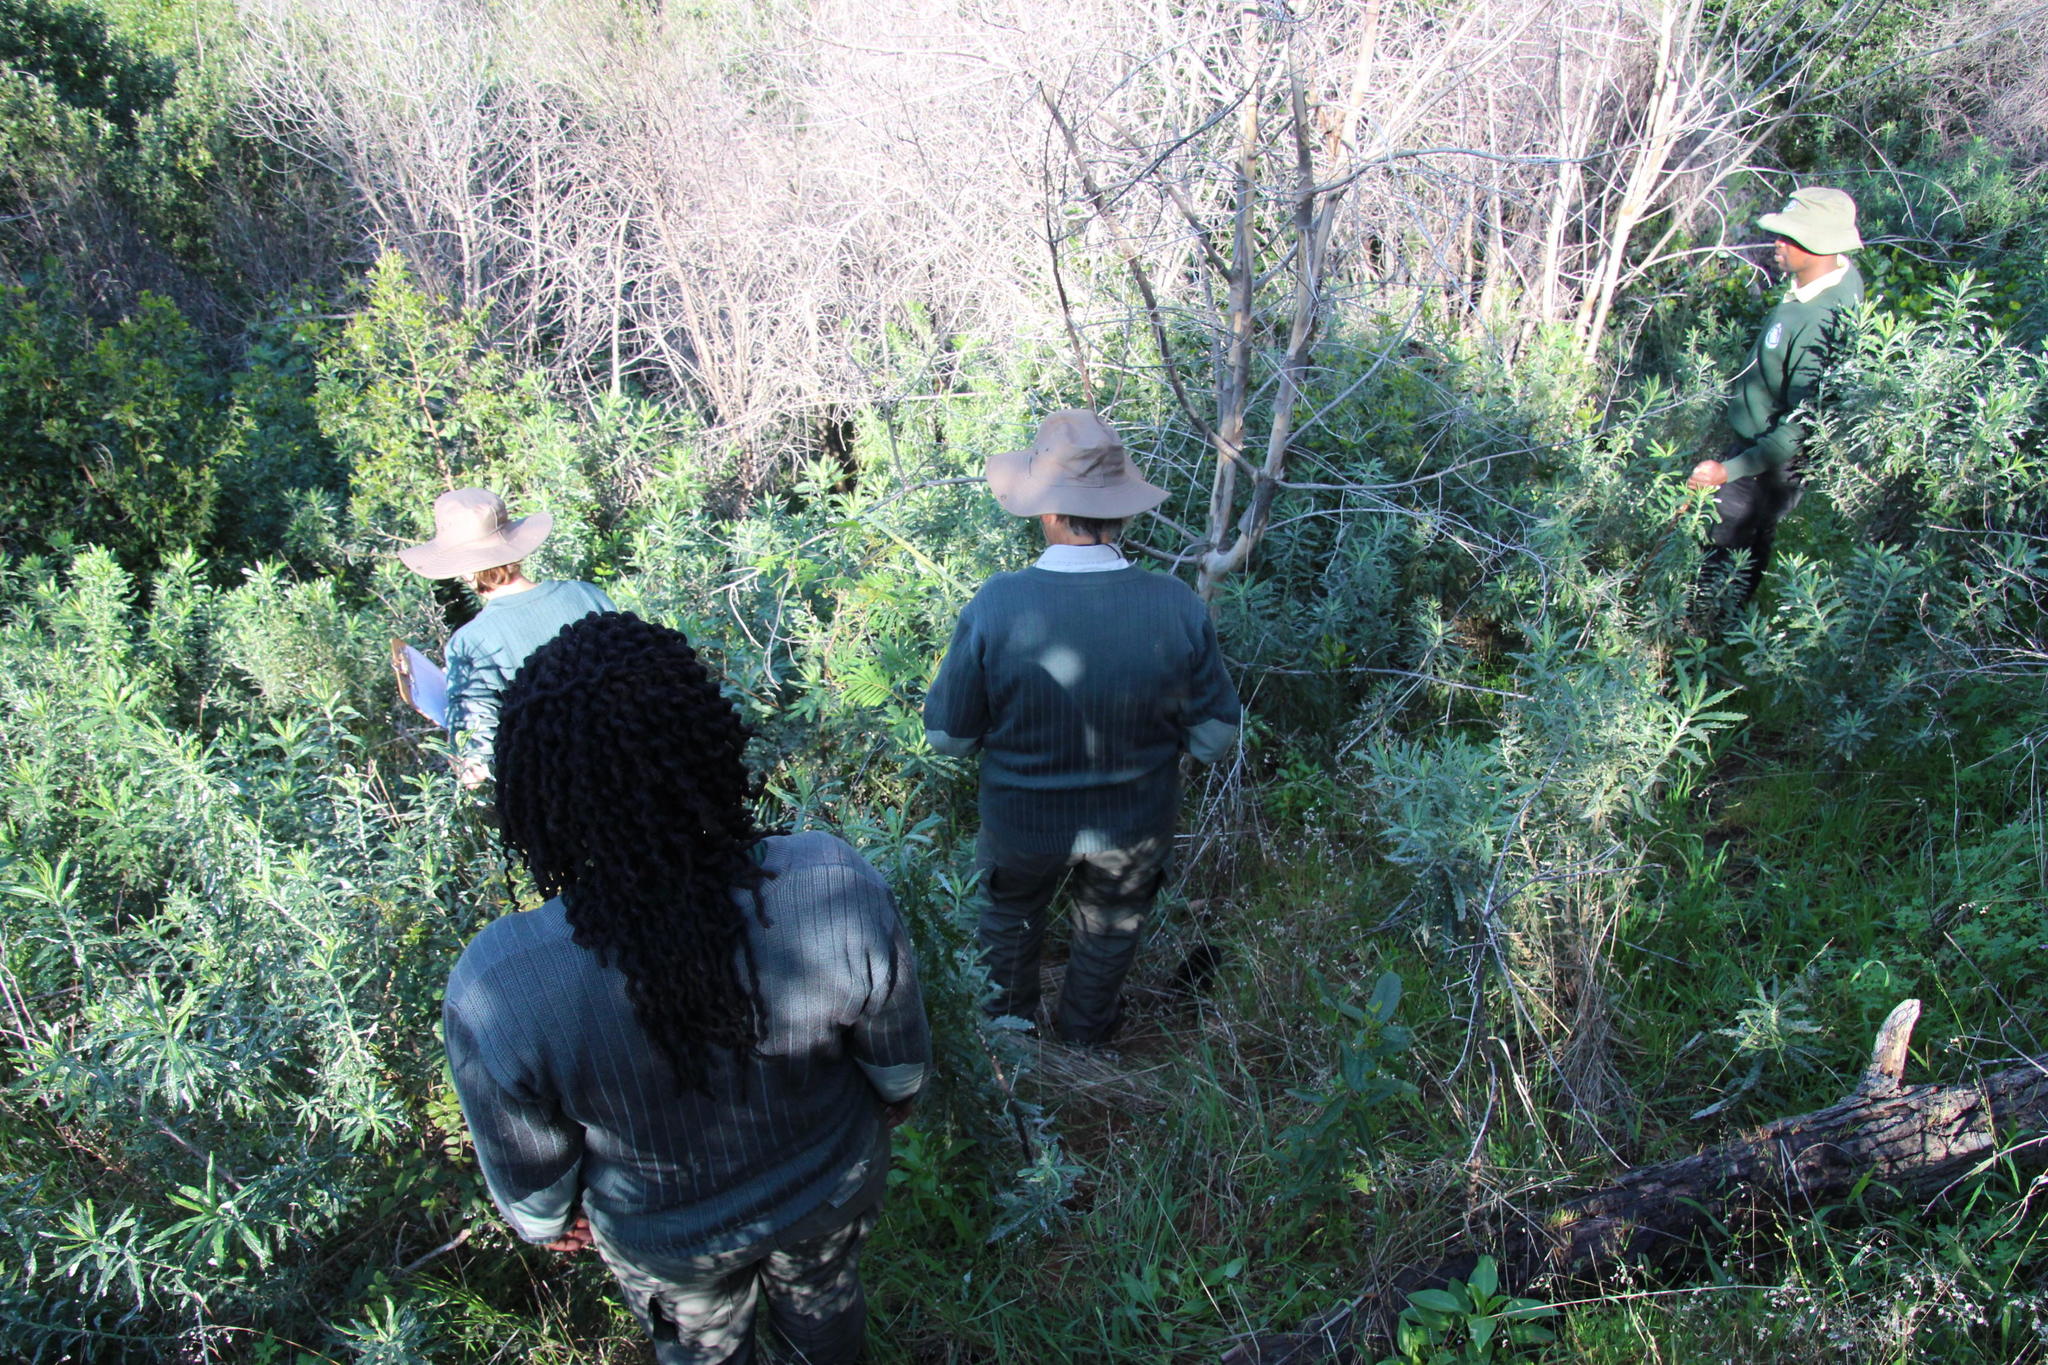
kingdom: Plantae
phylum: Tracheophyta
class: Magnoliopsida
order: Asterales
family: Asteraceae
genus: Senecio
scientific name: Senecio pterophorus
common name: Shoddy ragwort
